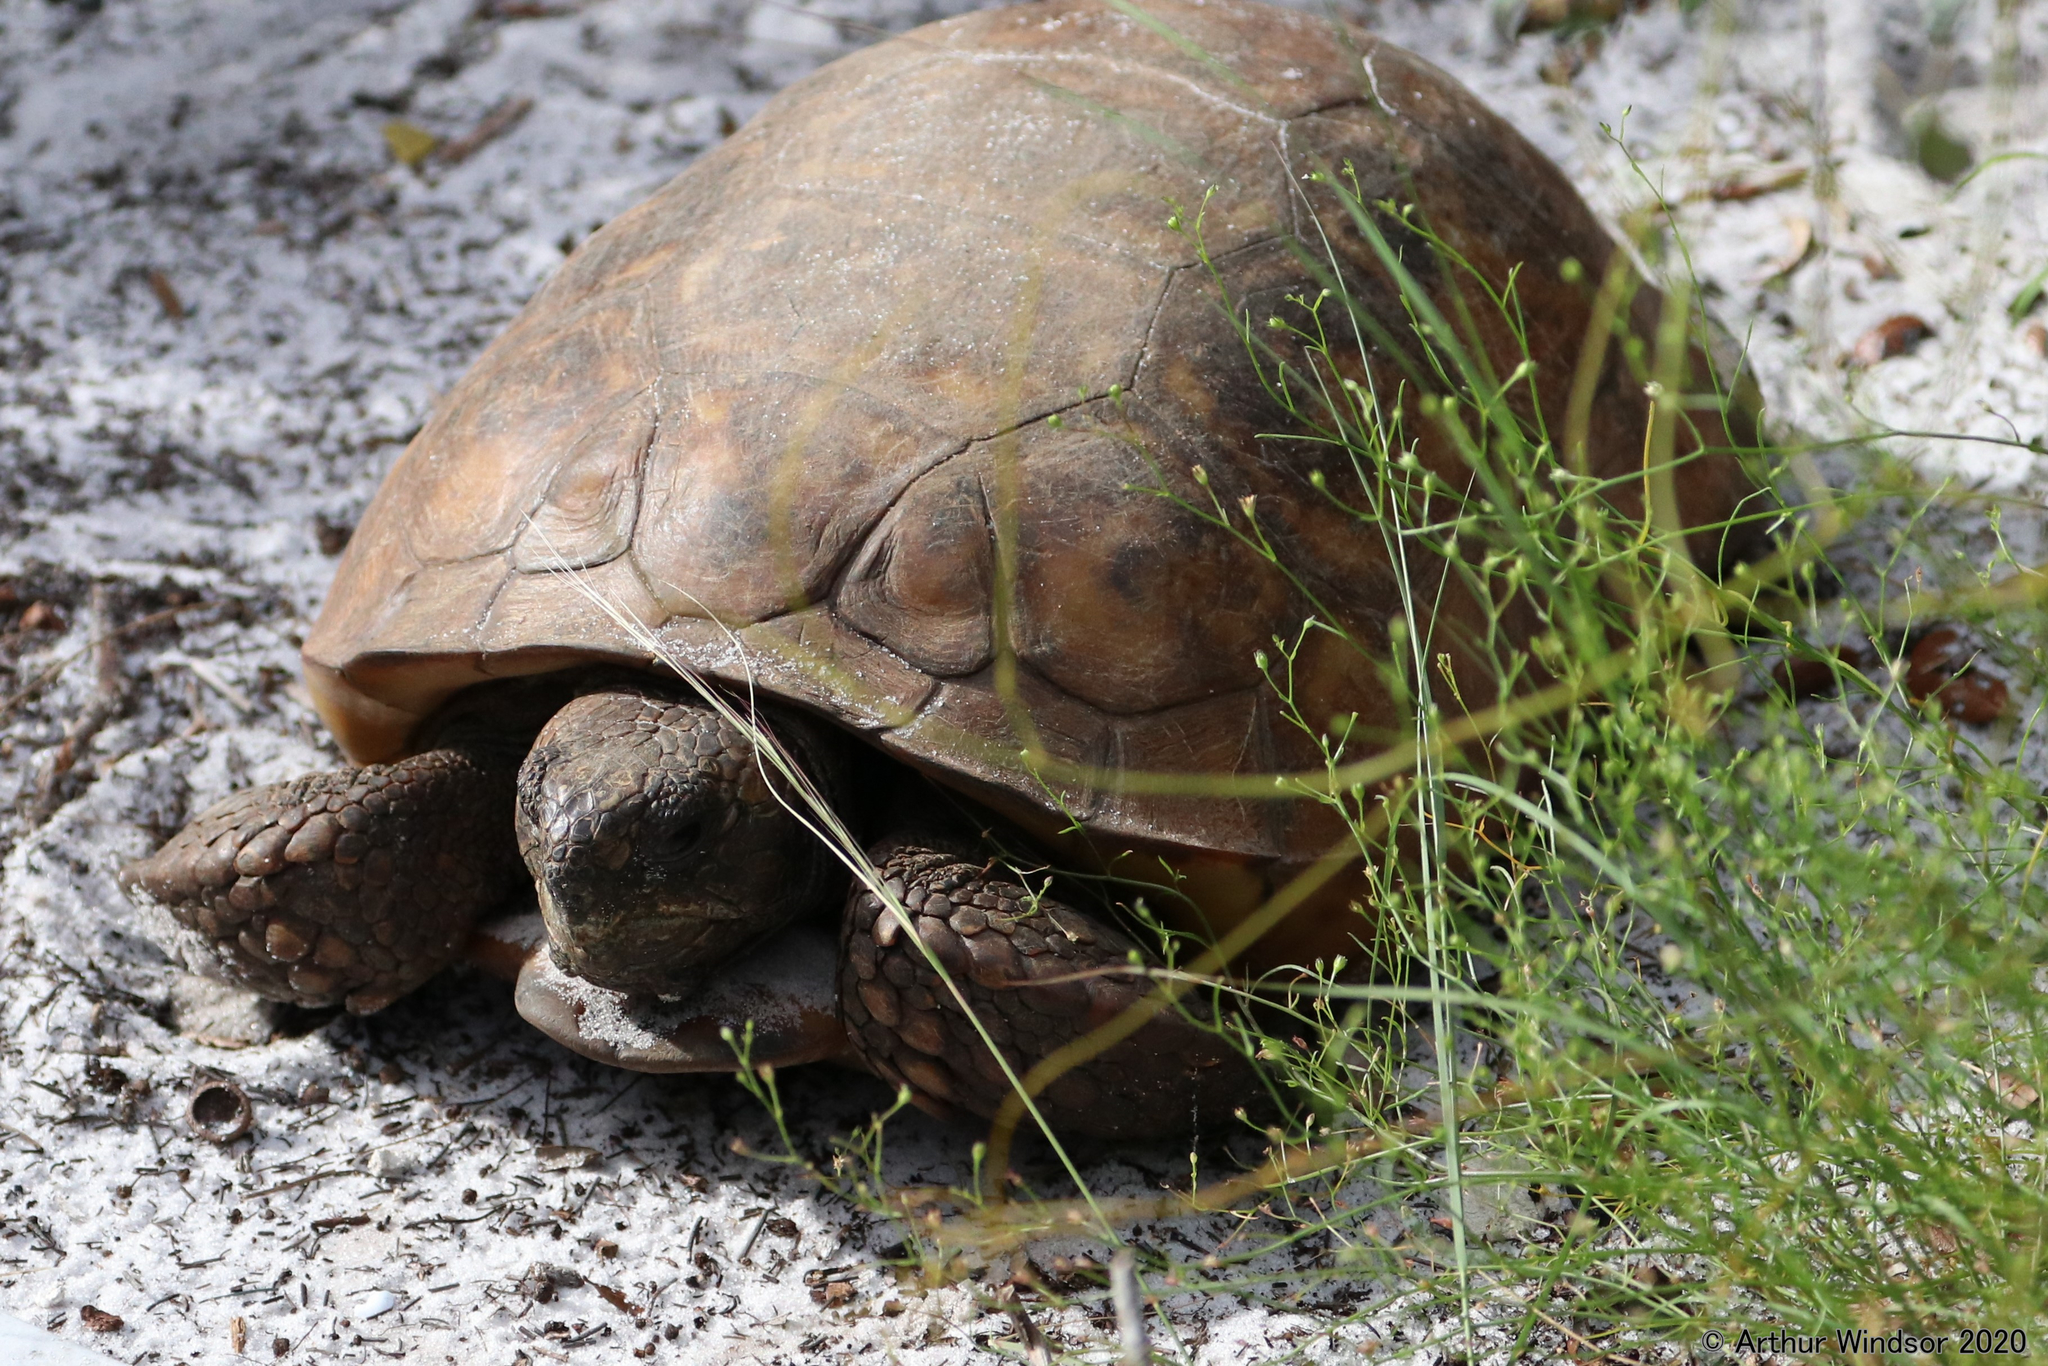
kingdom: Animalia
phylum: Chordata
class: Testudines
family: Testudinidae
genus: Gopherus
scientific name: Gopherus polyphemus
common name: Florida gopher tortoise
